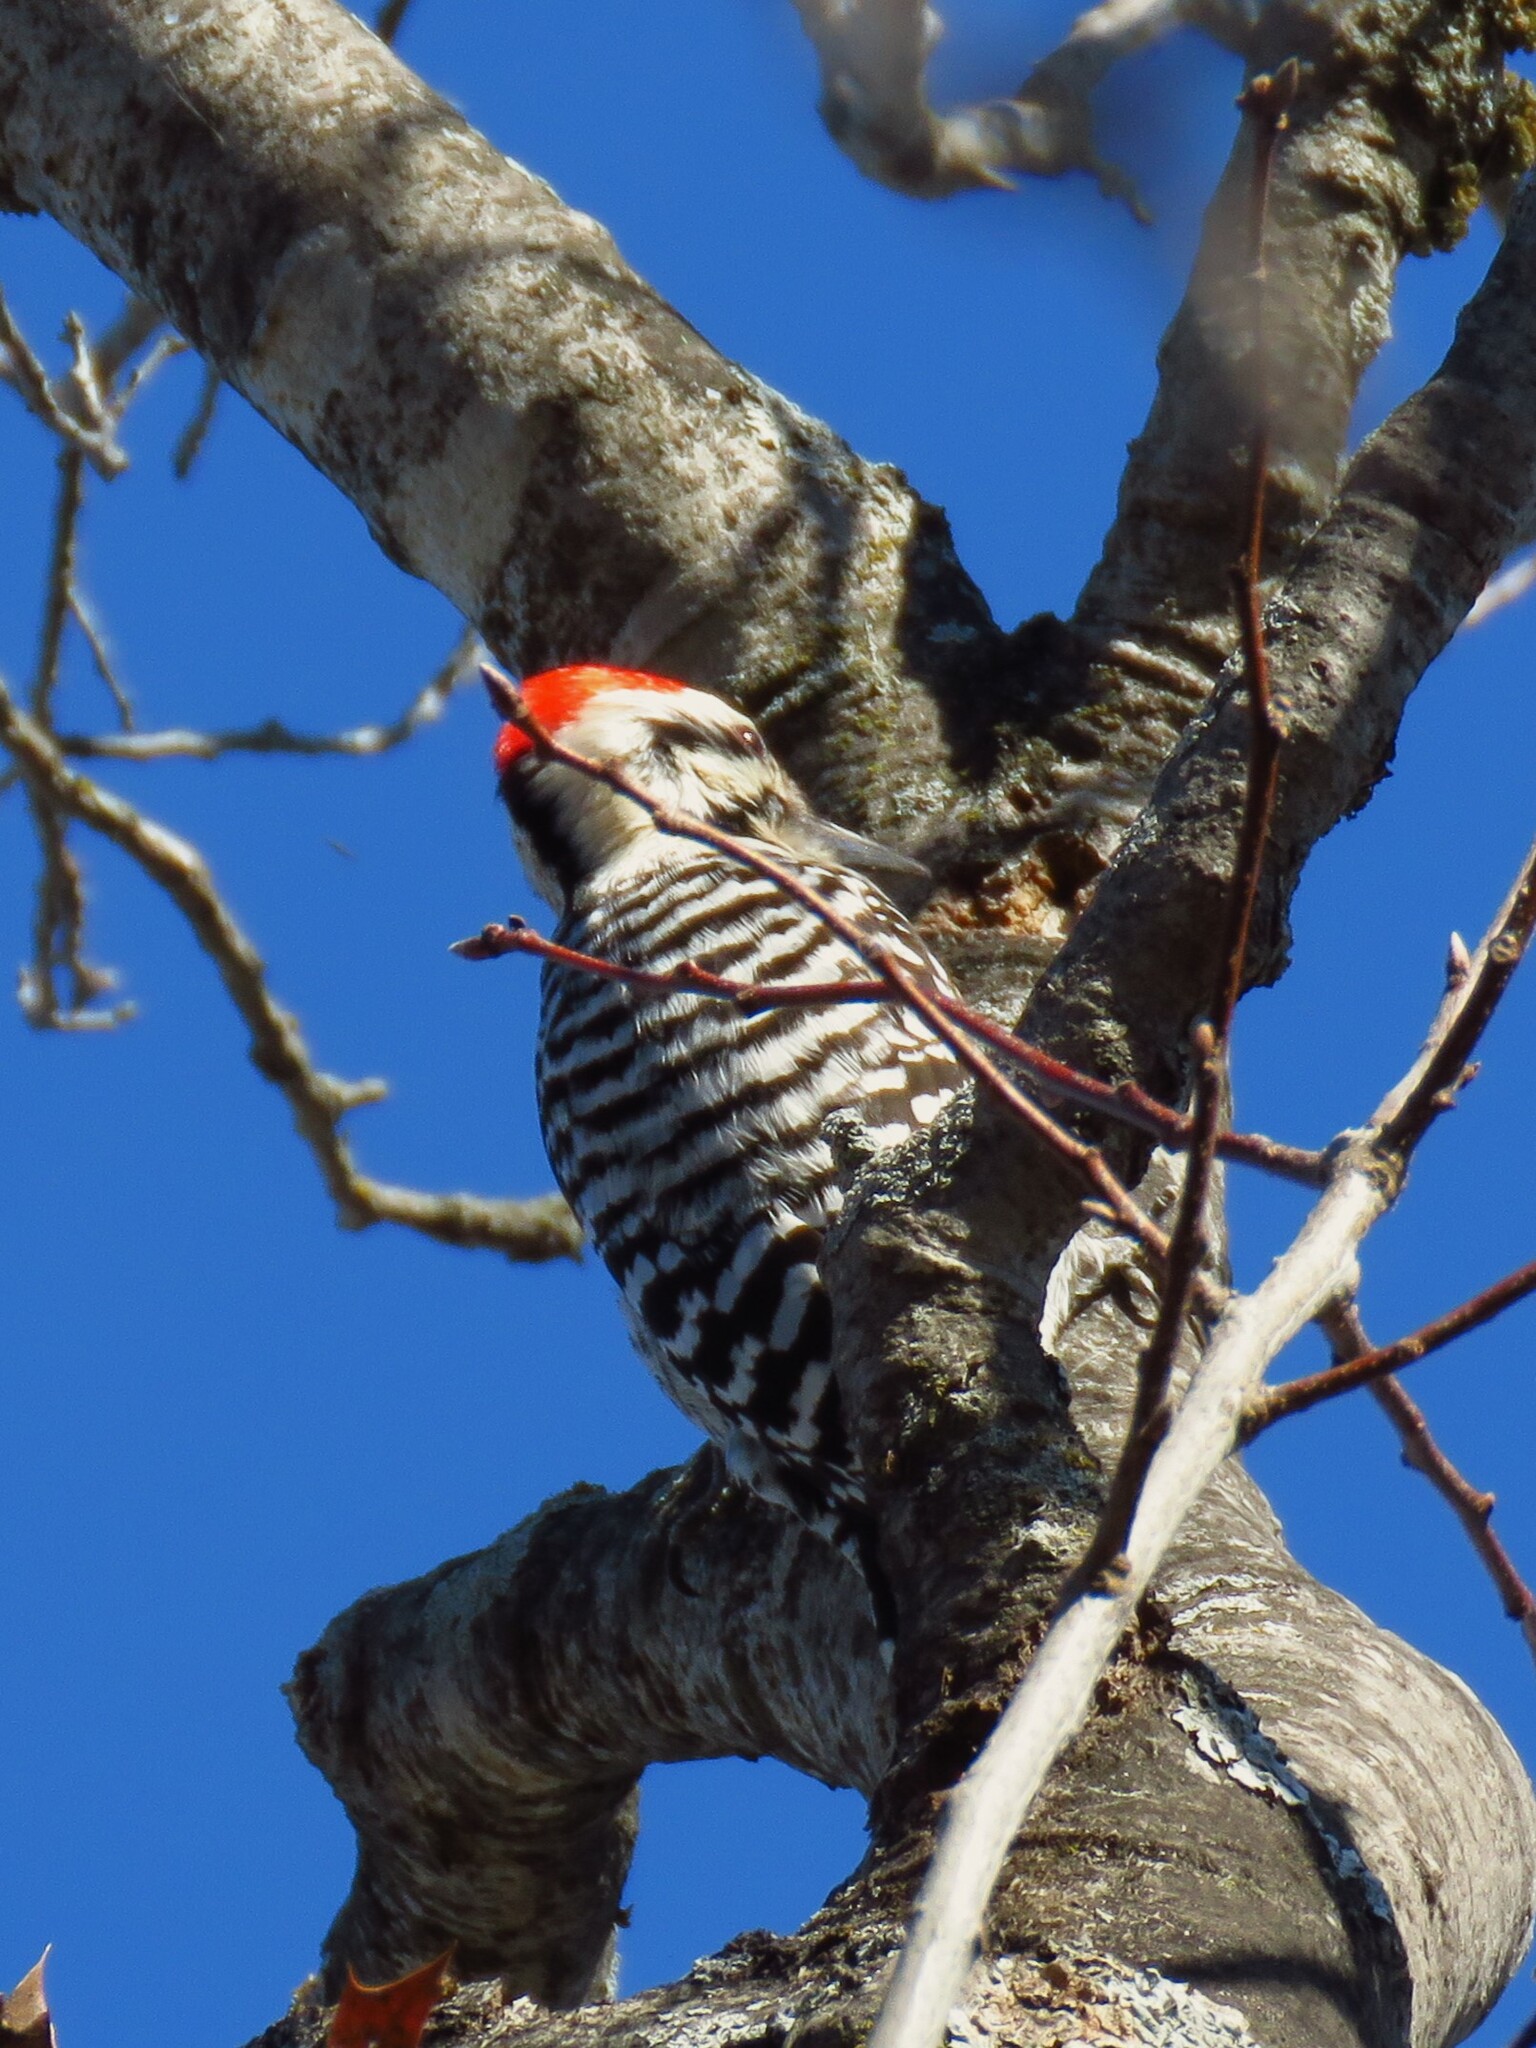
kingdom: Animalia
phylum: Chordata
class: Aves
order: Piciformes
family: Picidae
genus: Dryobates
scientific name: Dryobates scalaris
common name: Ladder-backed woodpecker
